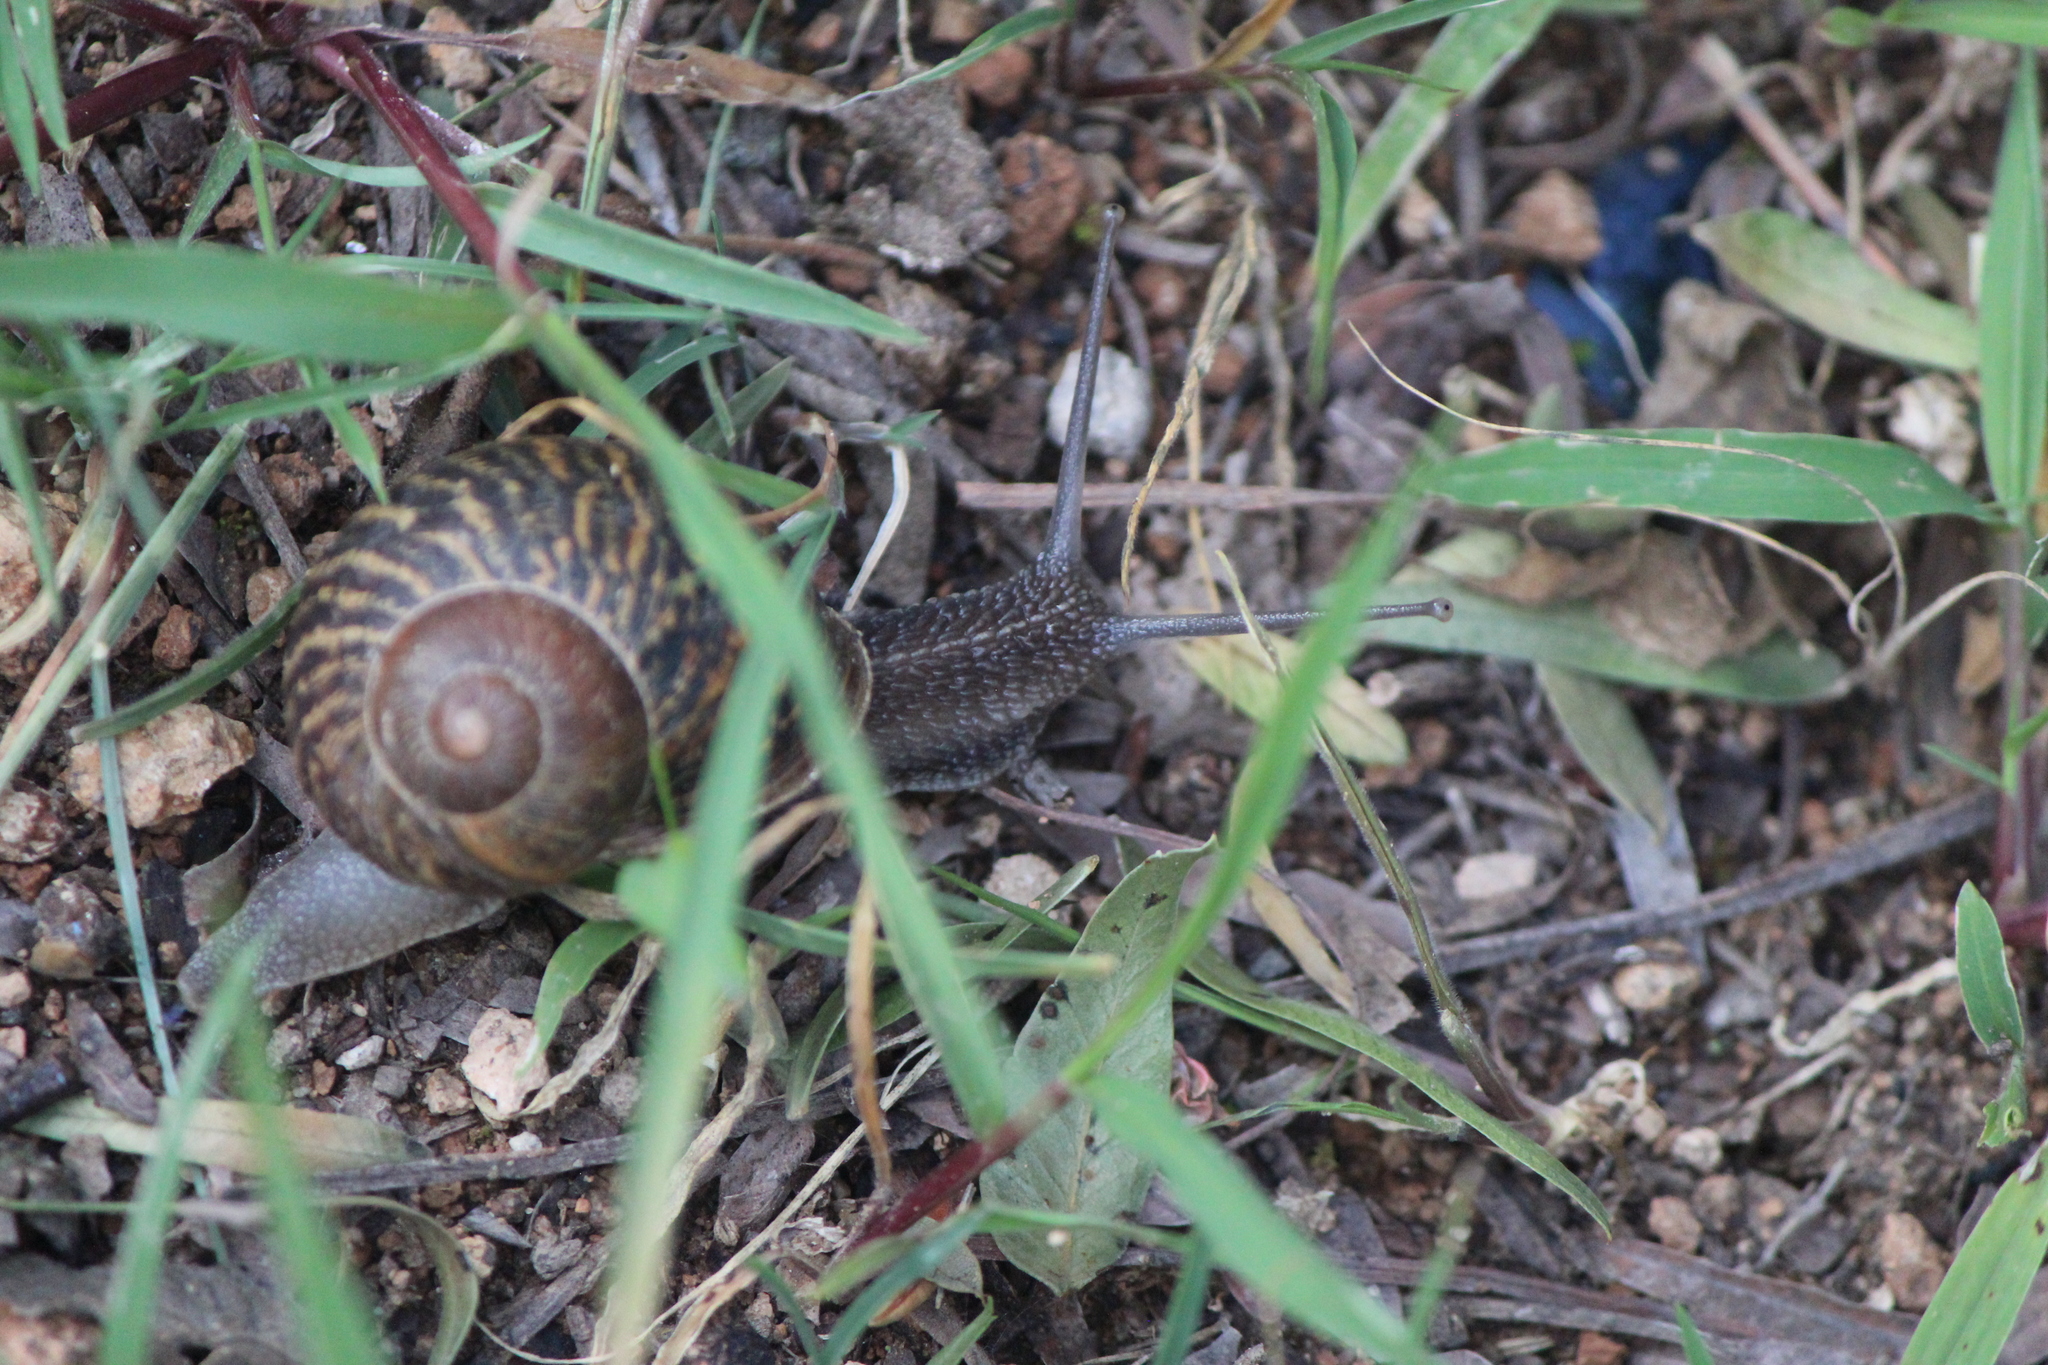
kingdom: Animalia
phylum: Mollusca
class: Gastropoda
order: Stylommatophora
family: Helicidae
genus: Cornu
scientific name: Cornu aspersum
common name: Brown garden snail
